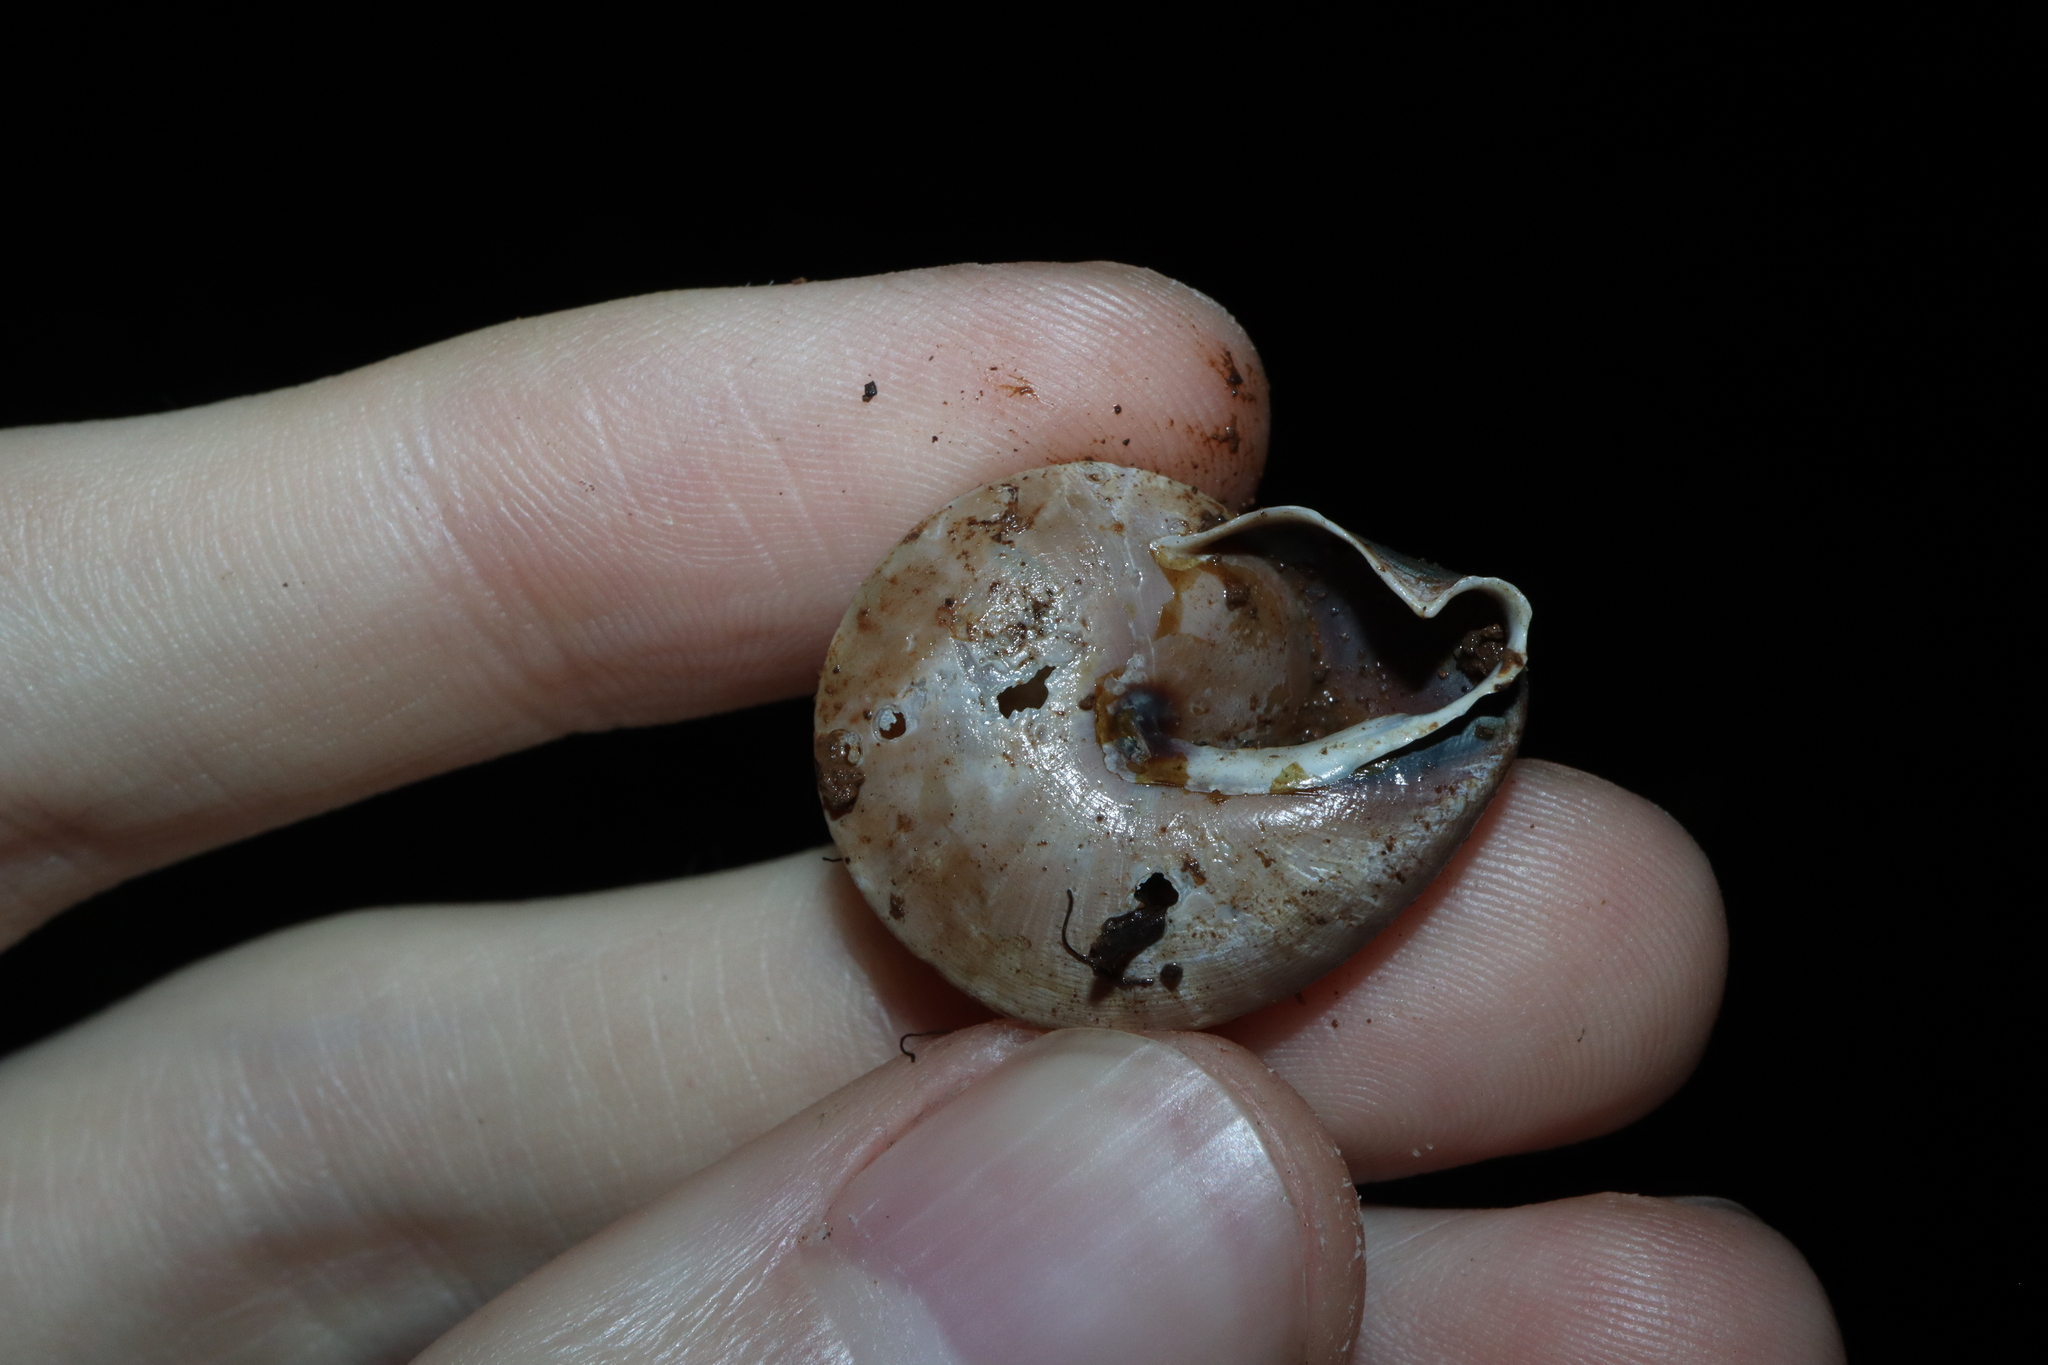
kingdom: Animalia
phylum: Mollusca
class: Gastropoda
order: Stylommatophora
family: Camaenidae
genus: Rhynchotrochus
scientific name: Rhynchotrochus macgillivrayi
